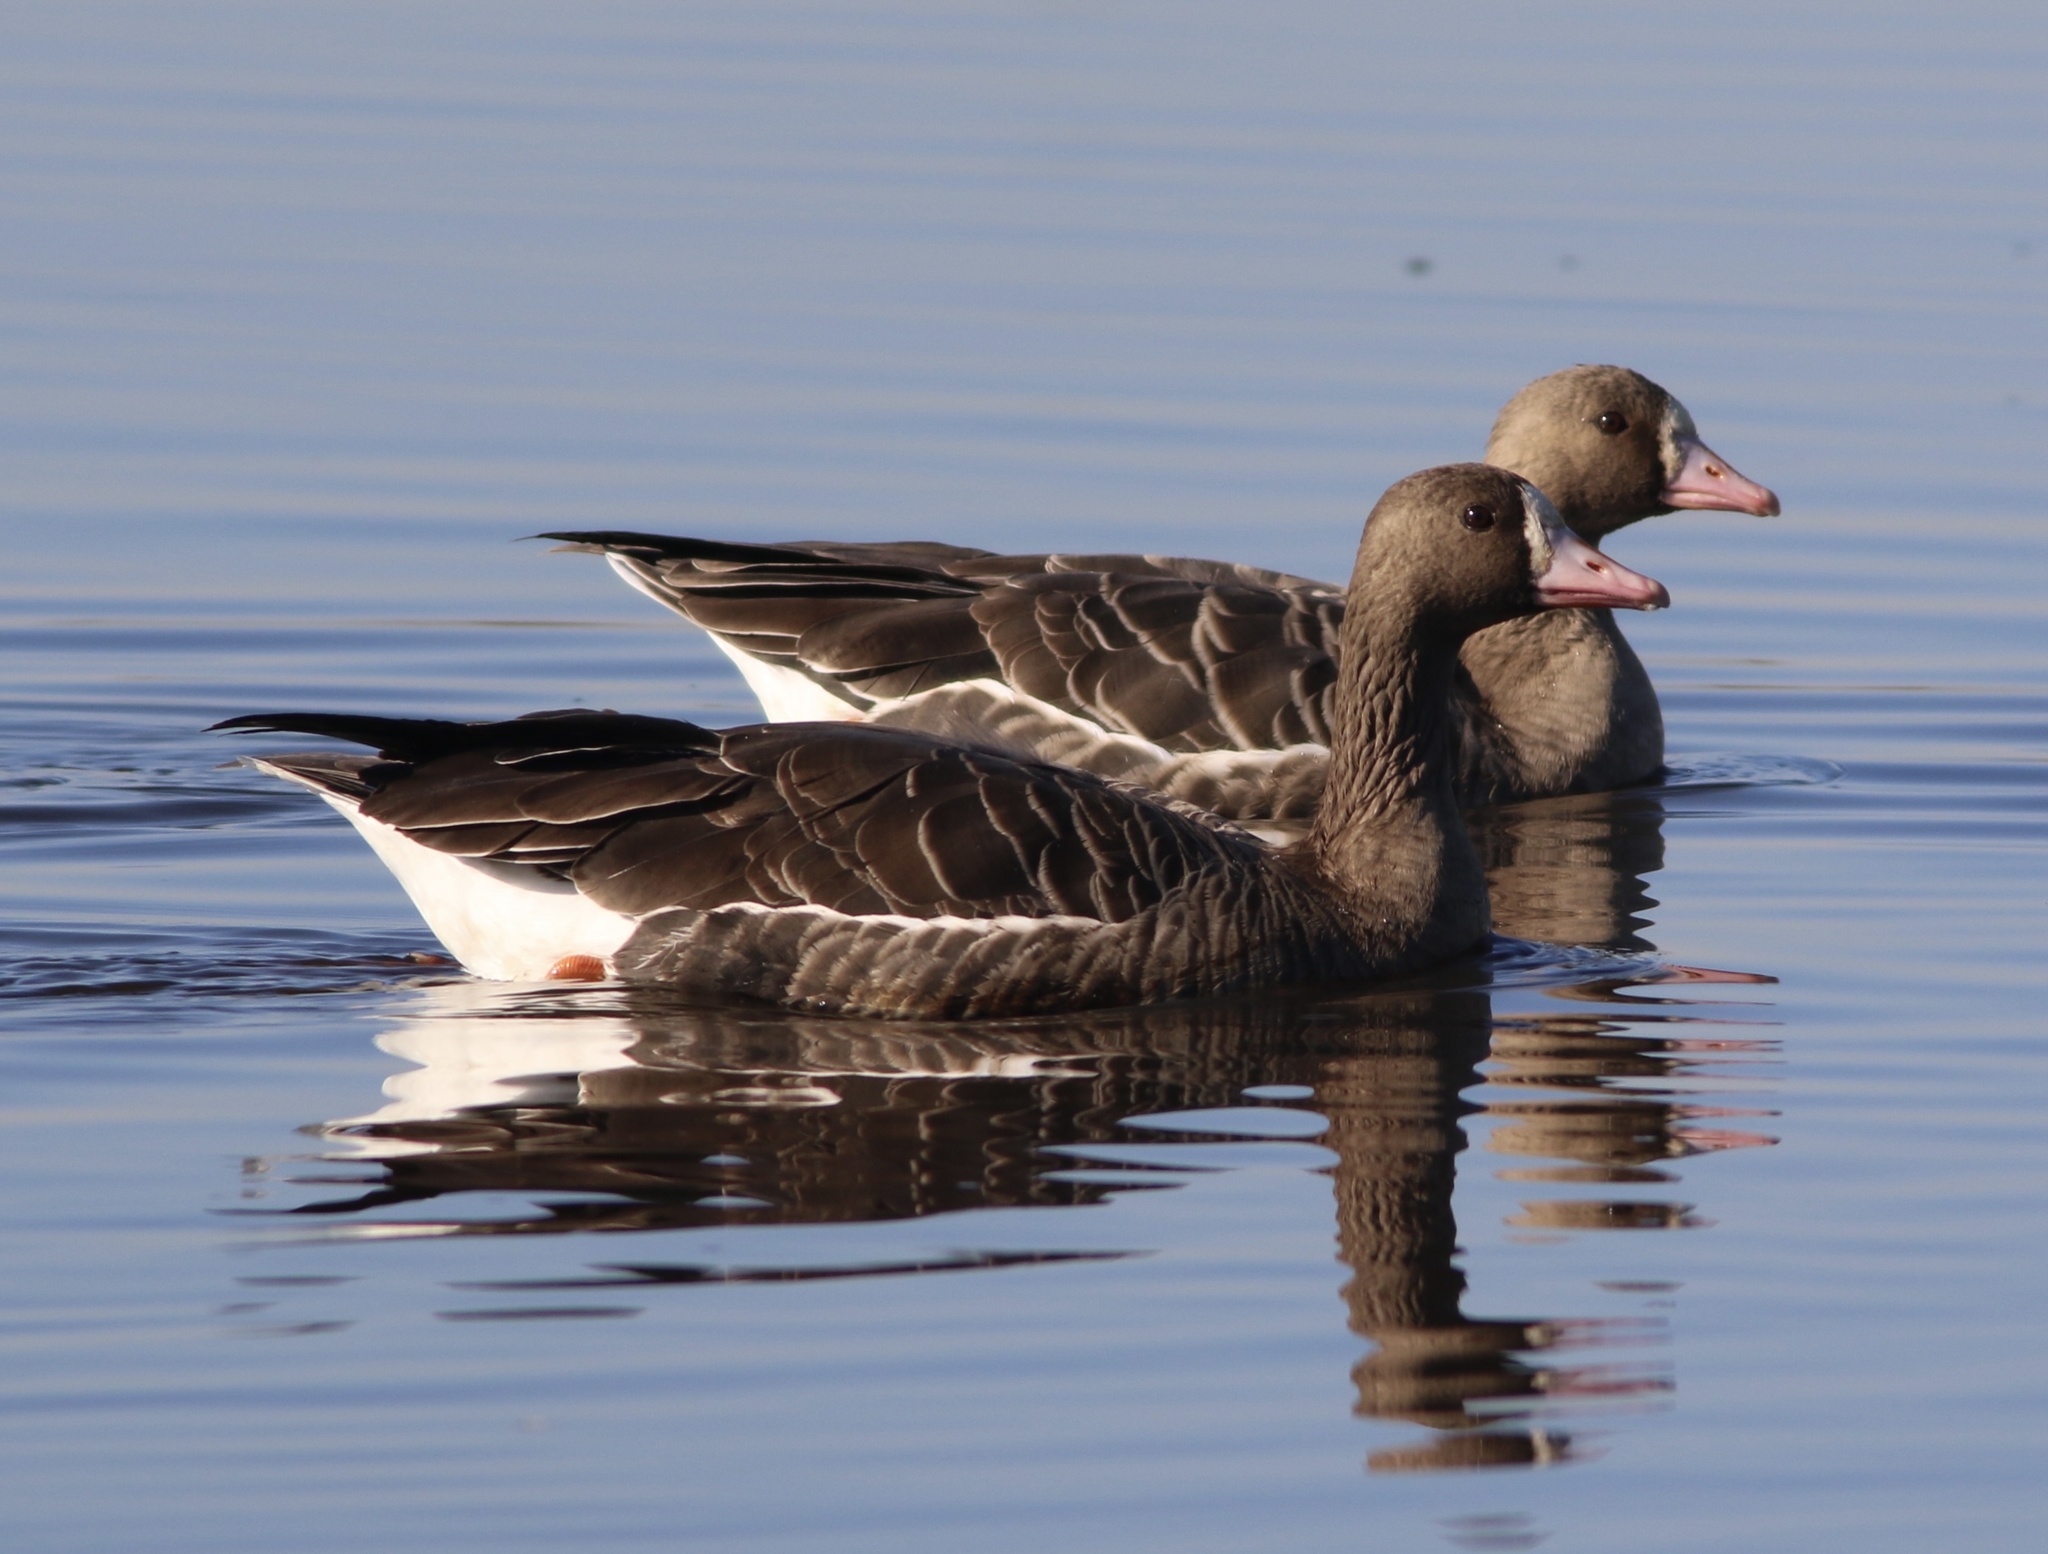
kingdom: Animalia
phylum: Chordata
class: Aves
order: Anseriformes
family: Anatidae
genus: Anser
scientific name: Anser albifrons
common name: Greater white-fronted goose
